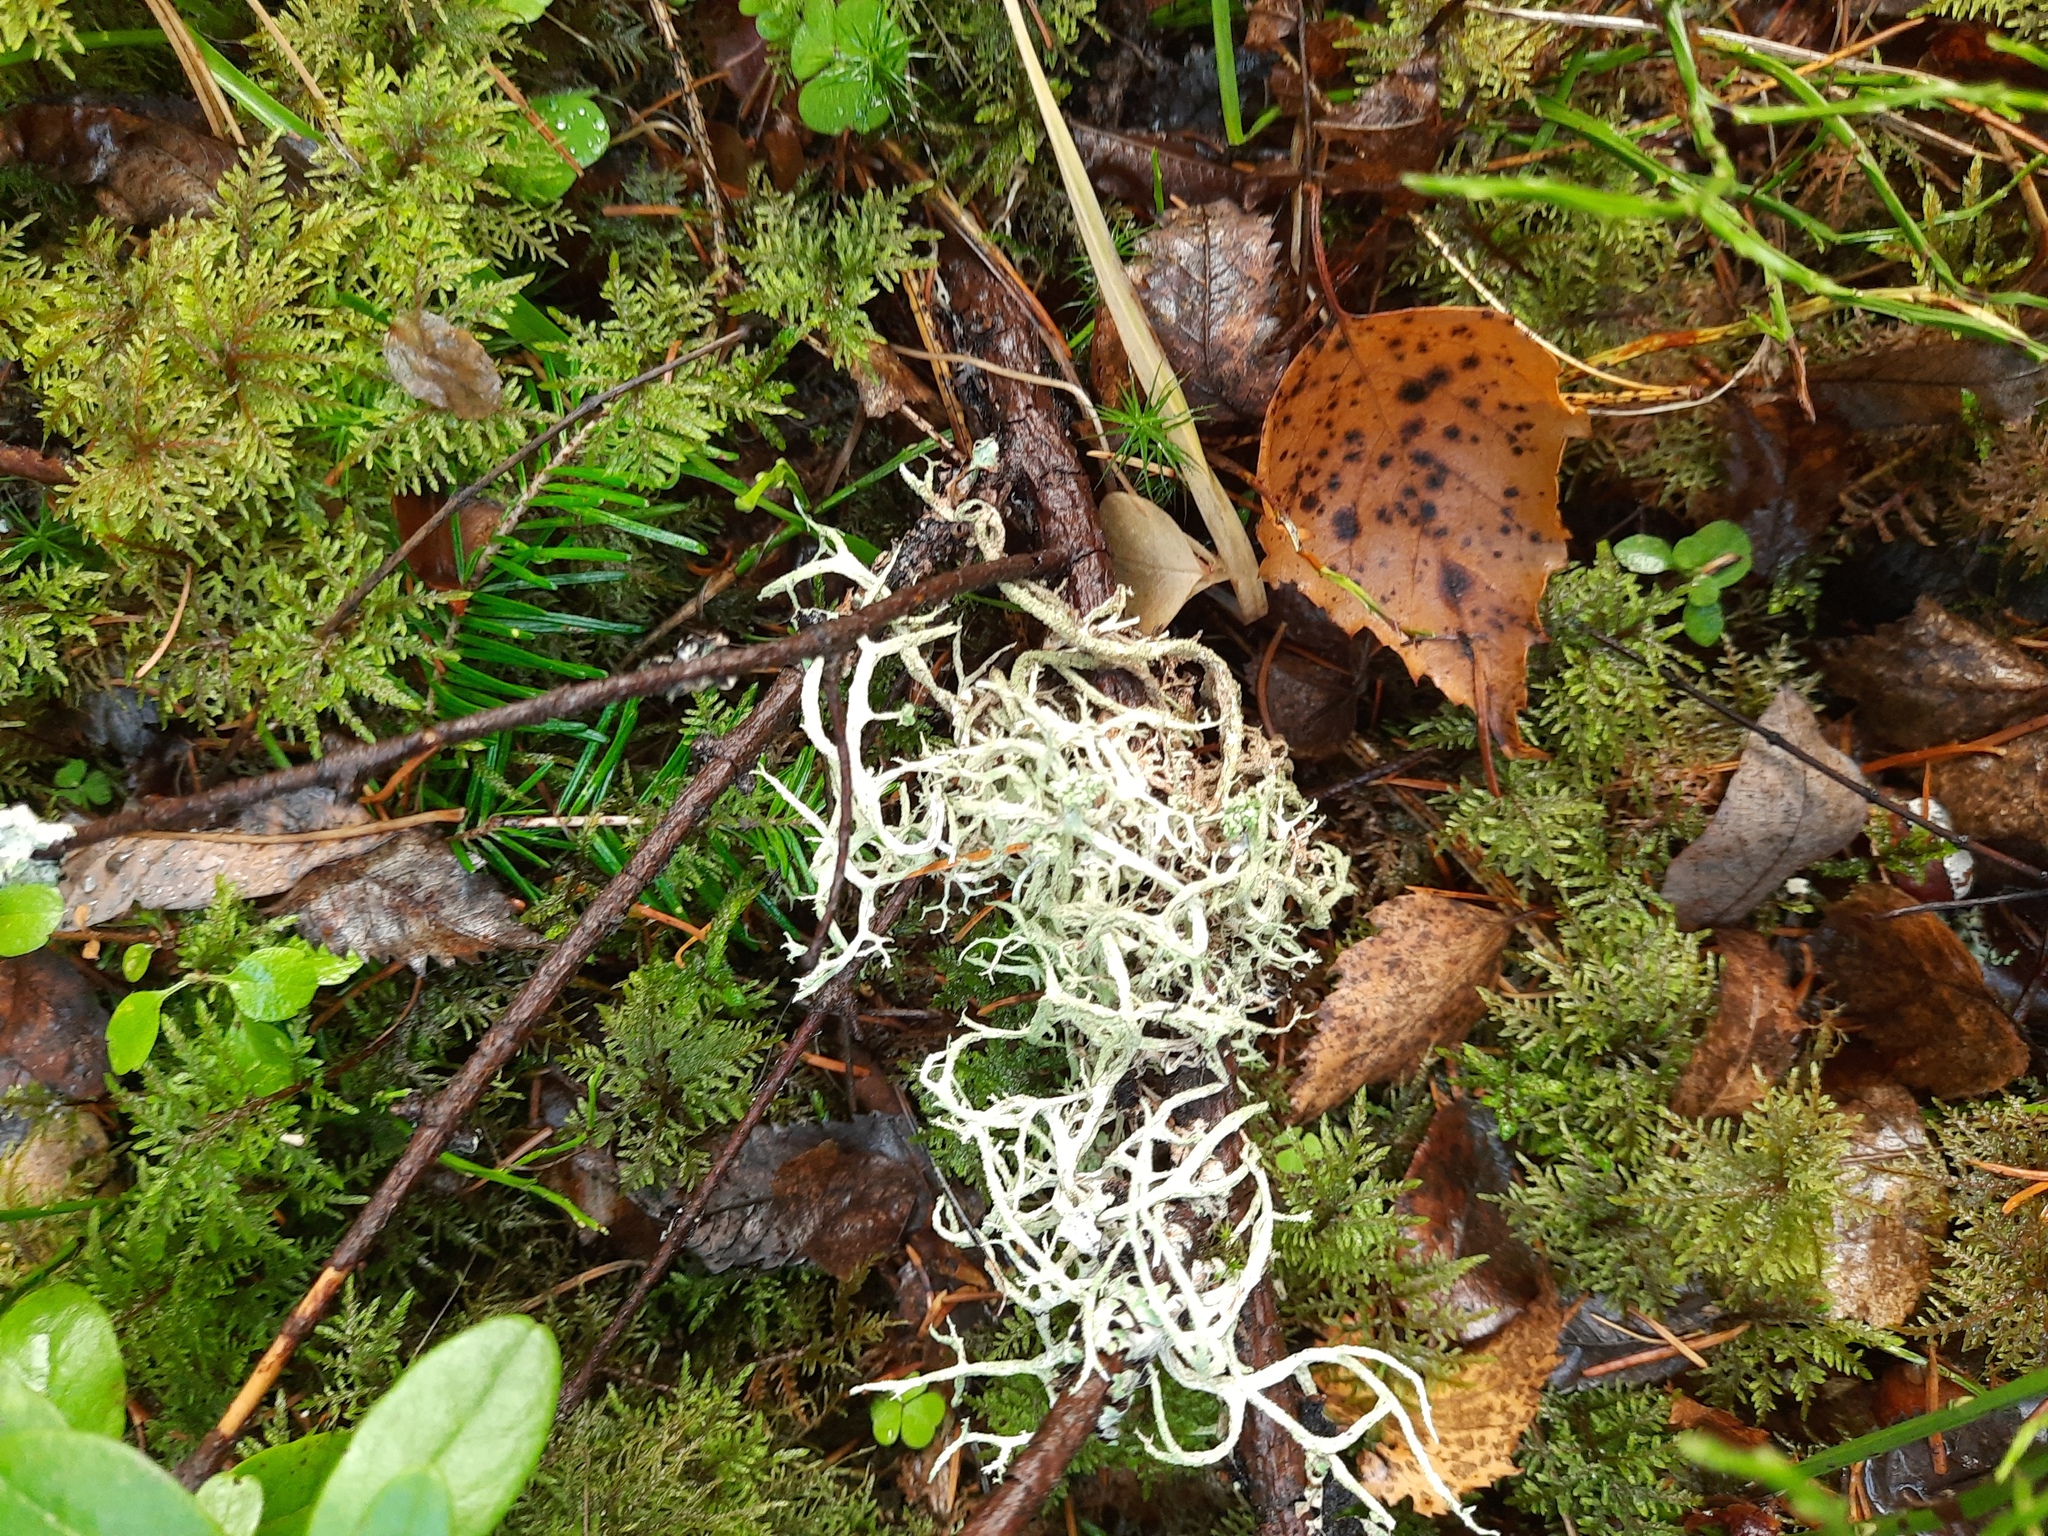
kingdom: Fungi
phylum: Ascomycota
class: Lecanoromycetes
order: Lecanorales
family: Parmeliaceae
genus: Evernia
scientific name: Evernia mesomorpha
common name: Boreal oak moss lichen
